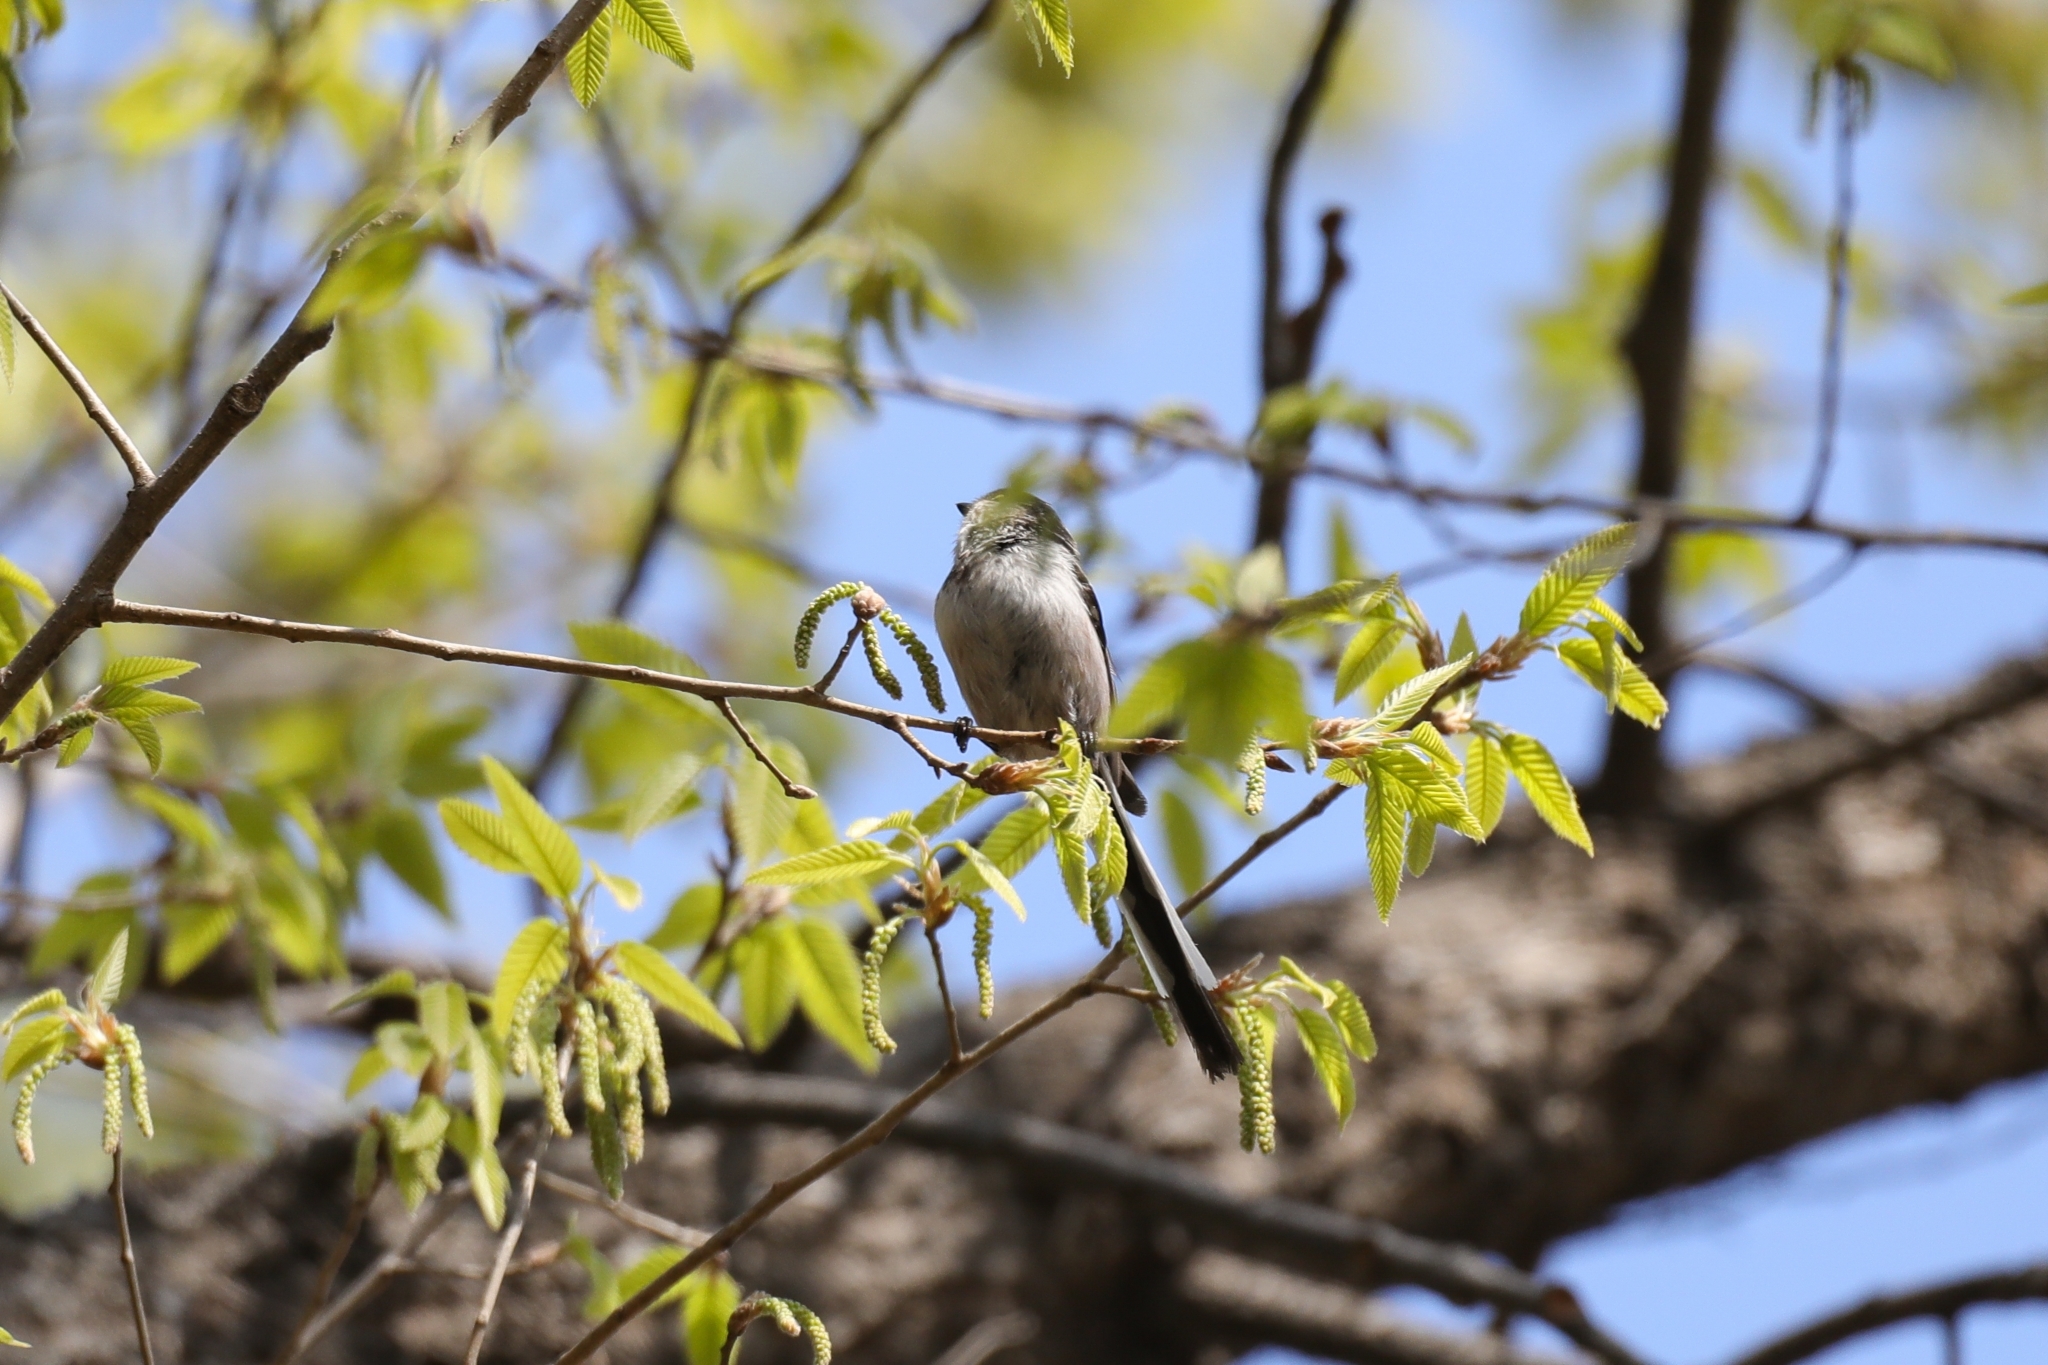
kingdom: Animalia
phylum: Chordata
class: Aves
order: Passeriformes
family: Aegithalidae
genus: Aegithalos
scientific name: Aegithalos caudatus
